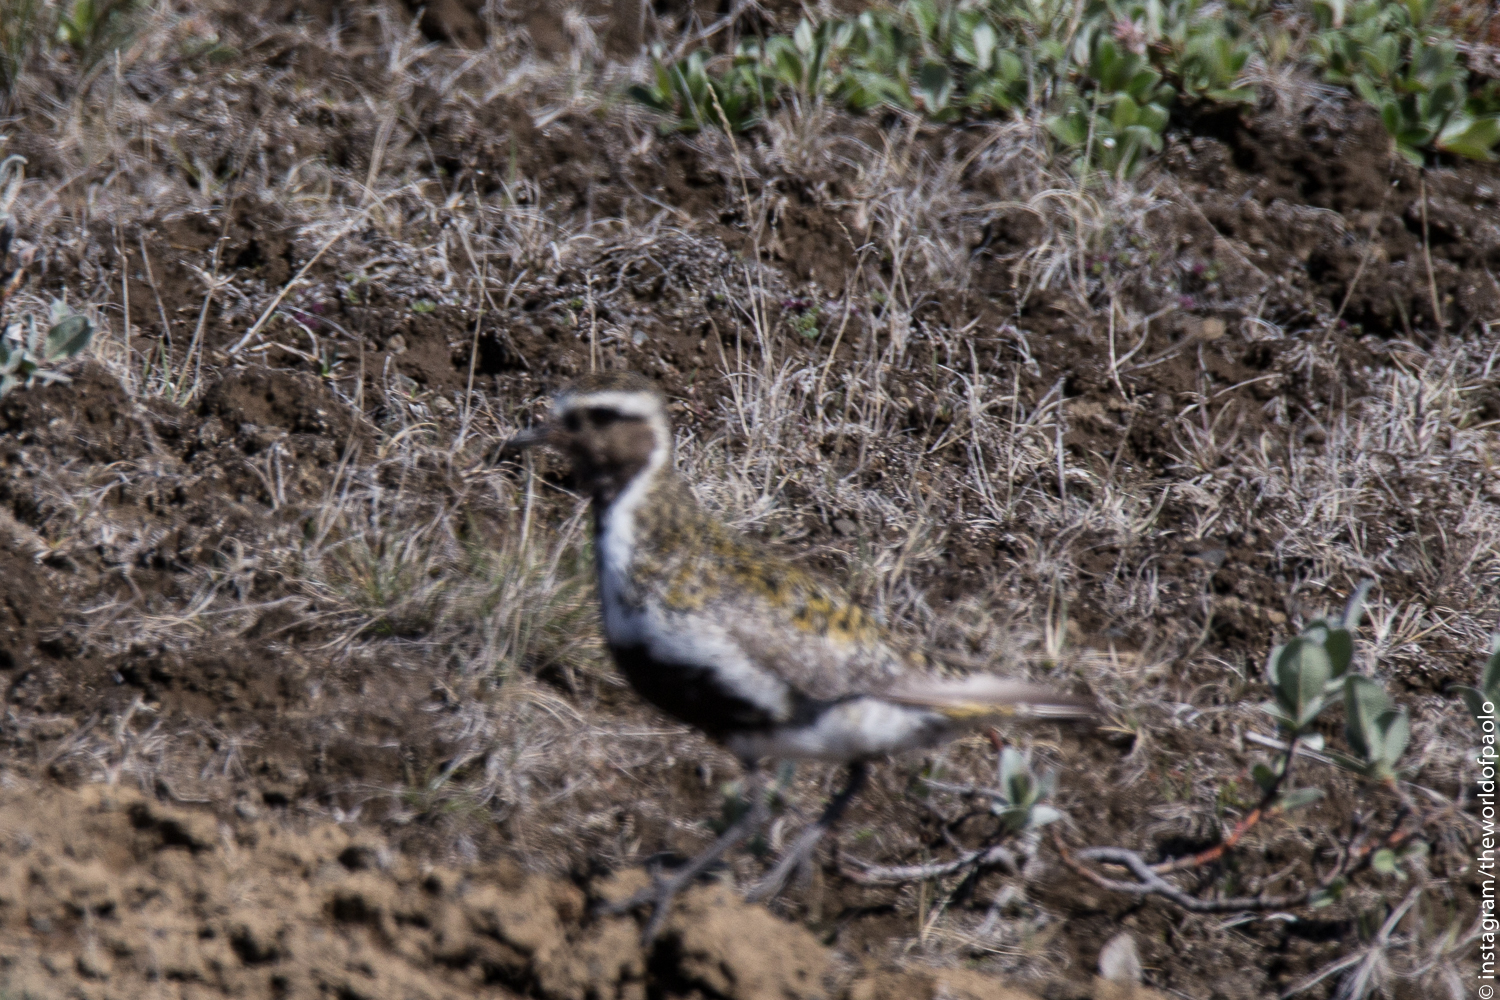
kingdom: Animalia
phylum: Chordata
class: Aves
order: Charadriiformes
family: Charadriidae
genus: Pluvialis
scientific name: Pluvialis apricaria
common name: European golden plover
